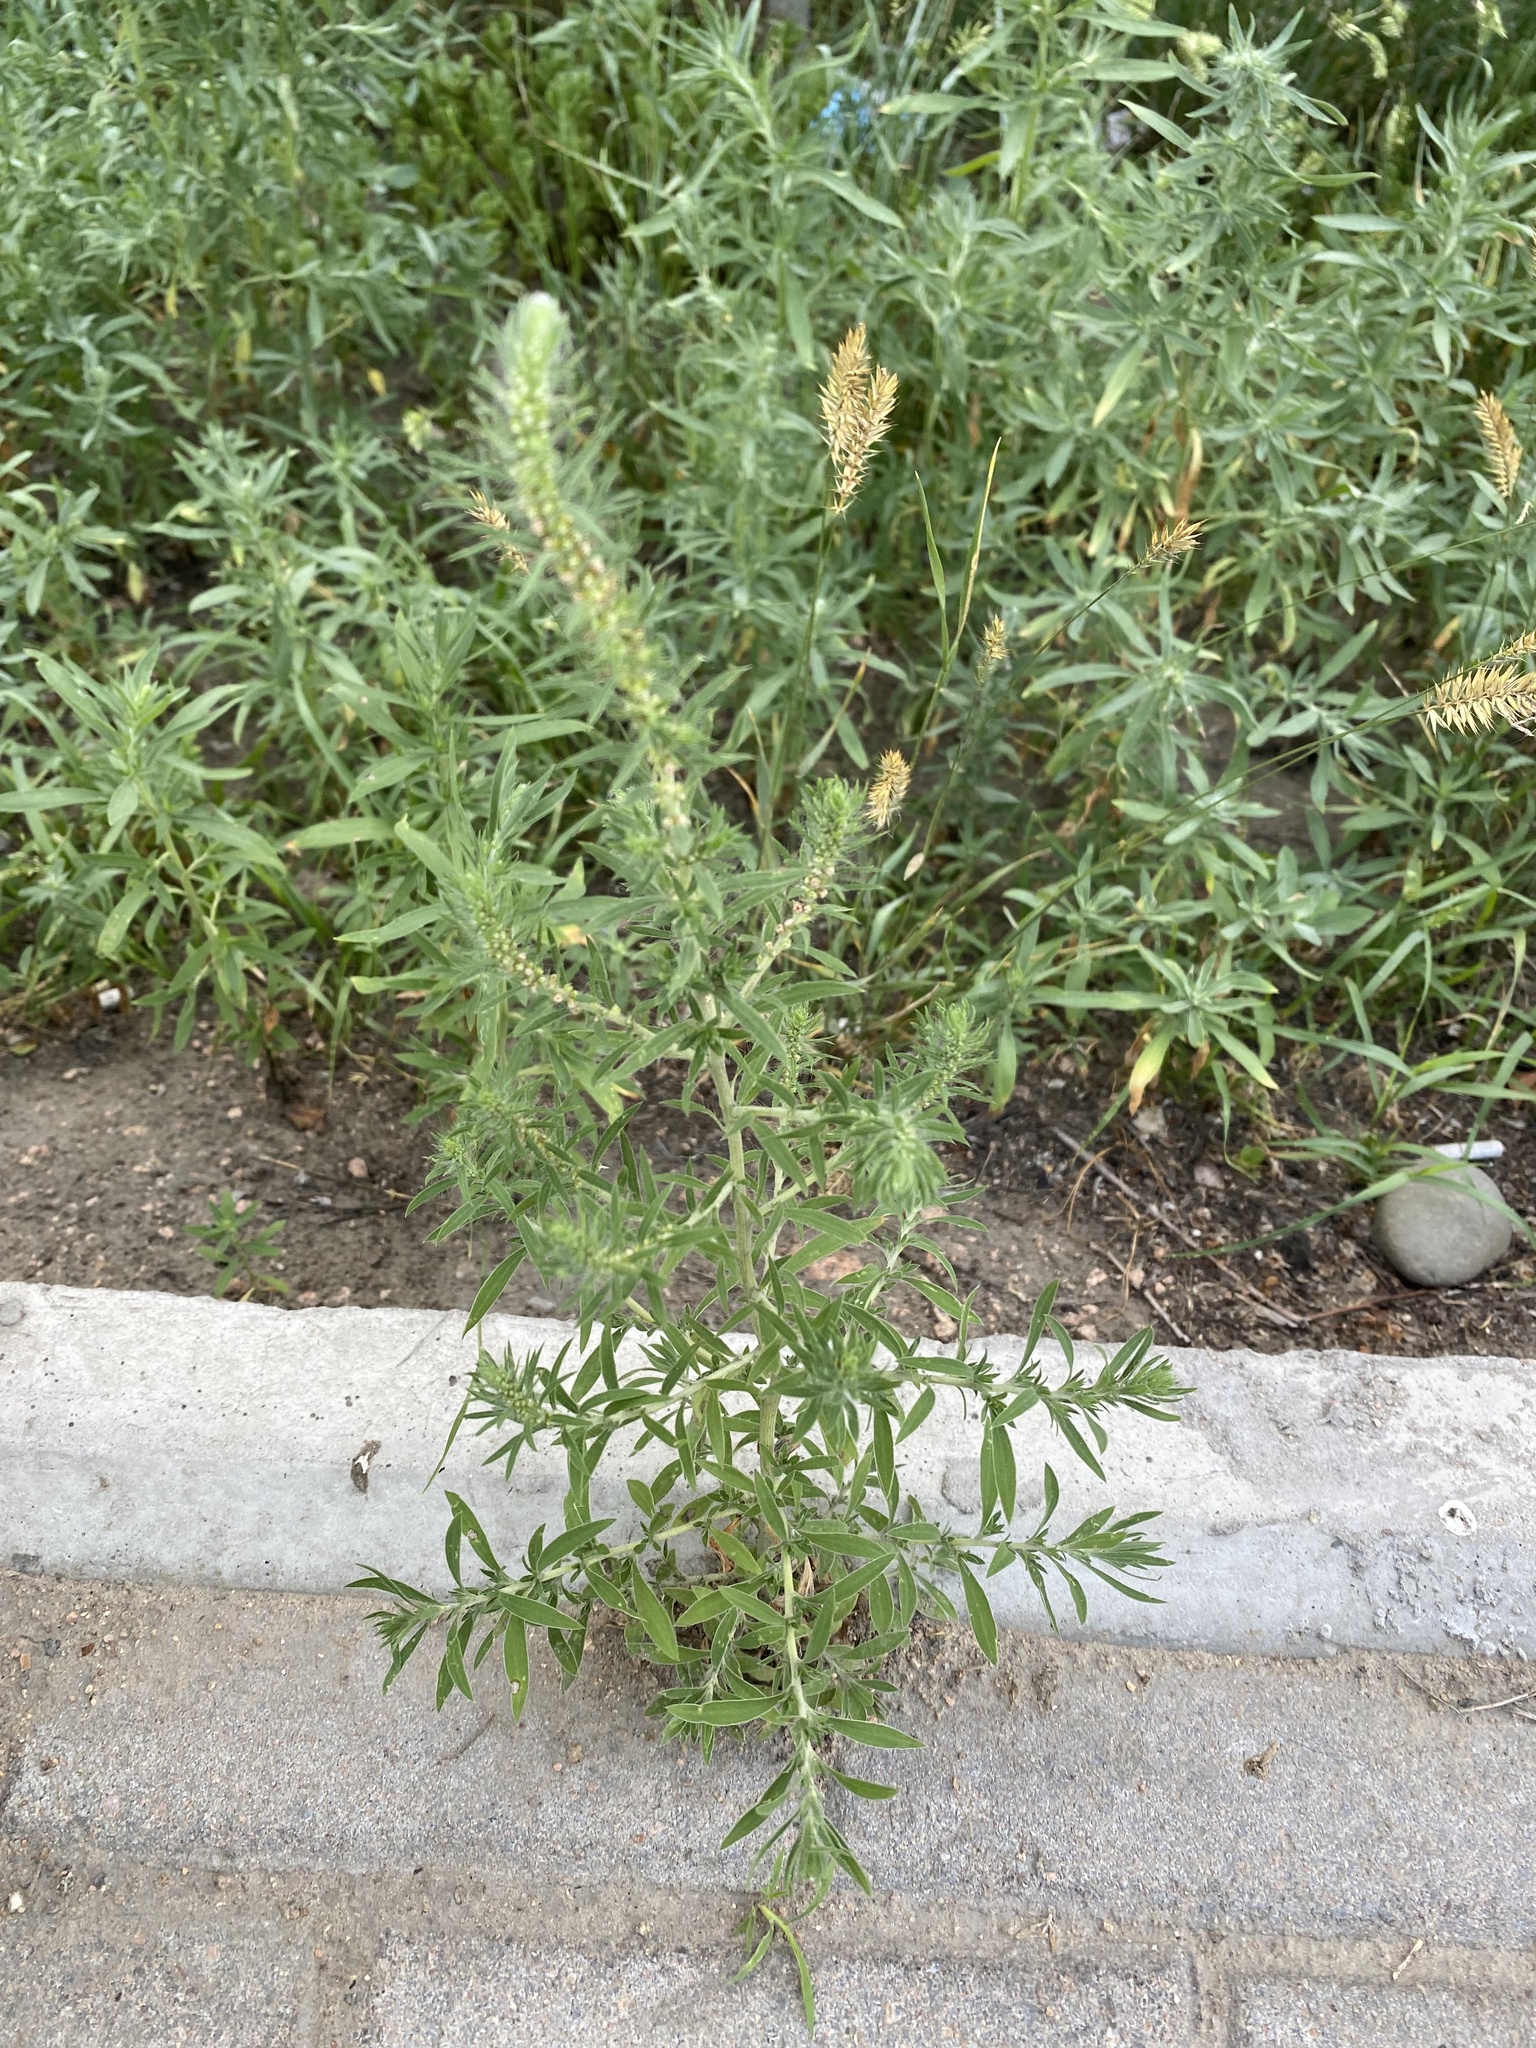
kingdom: Plantae
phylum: Tracheophyta
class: Magnoliopsida
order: Caryophyllales
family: Amaranthaceae
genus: Bassia
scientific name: Bassia scoparia
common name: Belvedere
